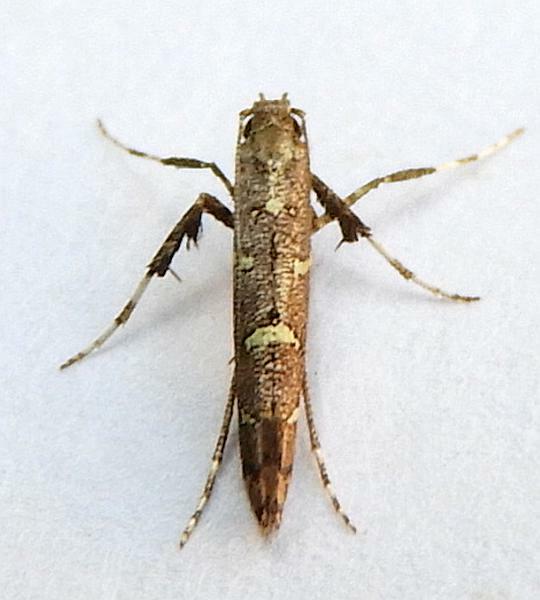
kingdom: Animalia
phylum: Arthropoda
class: Insecta
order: Lepidoptera
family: Gracillariidae
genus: Caloptilia
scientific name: Caloptilia triadicae
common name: Tallow leaf roller
